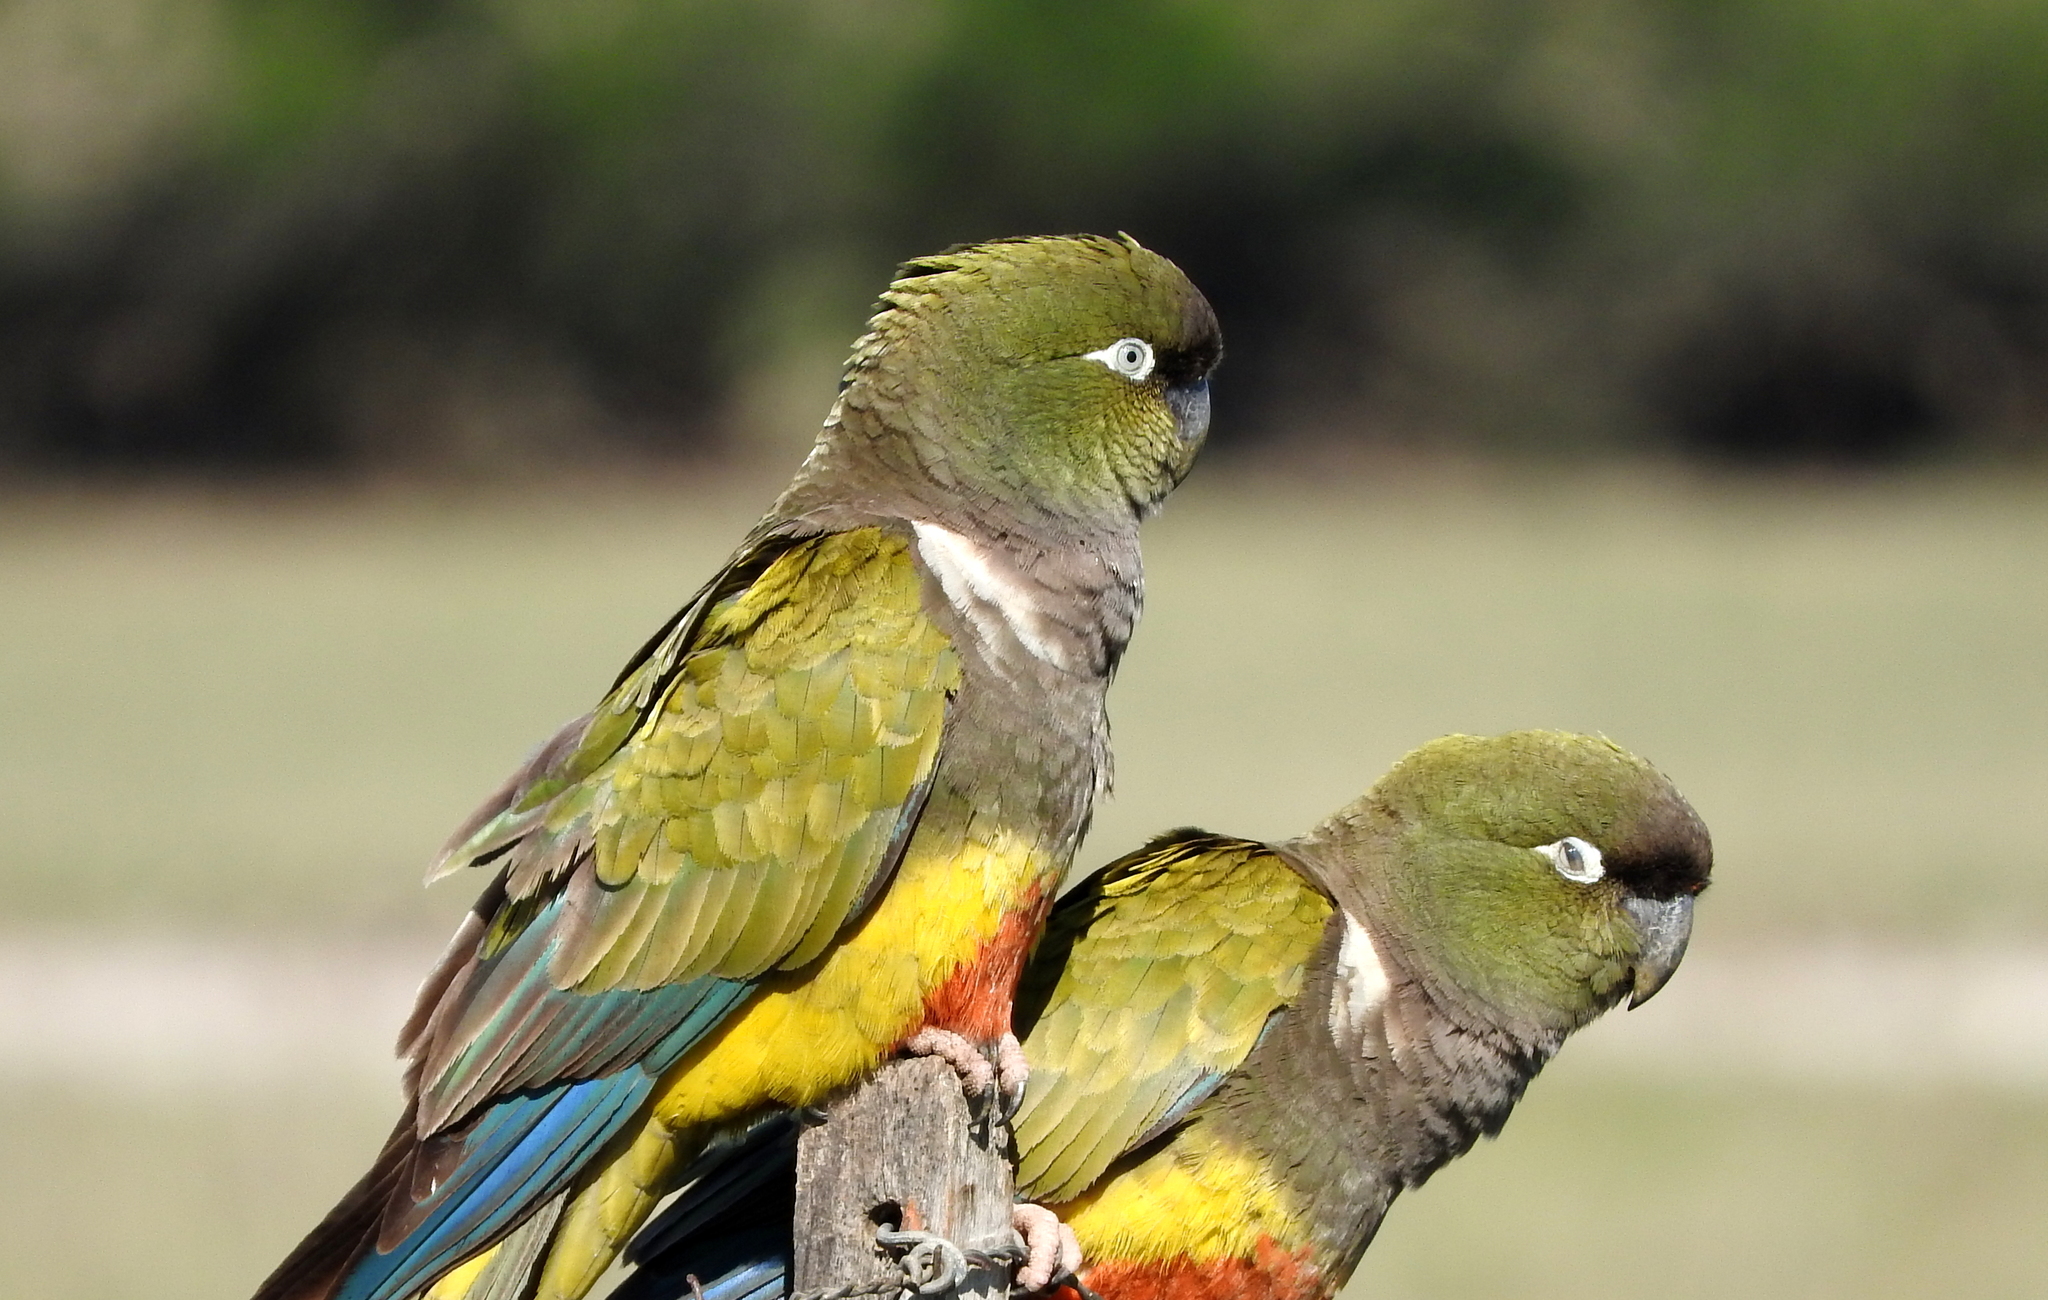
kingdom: Animalia
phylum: Chordata
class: Aves
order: Psittaciformes
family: Psittacidae
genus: Cyanoliseus
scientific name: Cyanoliseus patagonus
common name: Burrowing parrot
